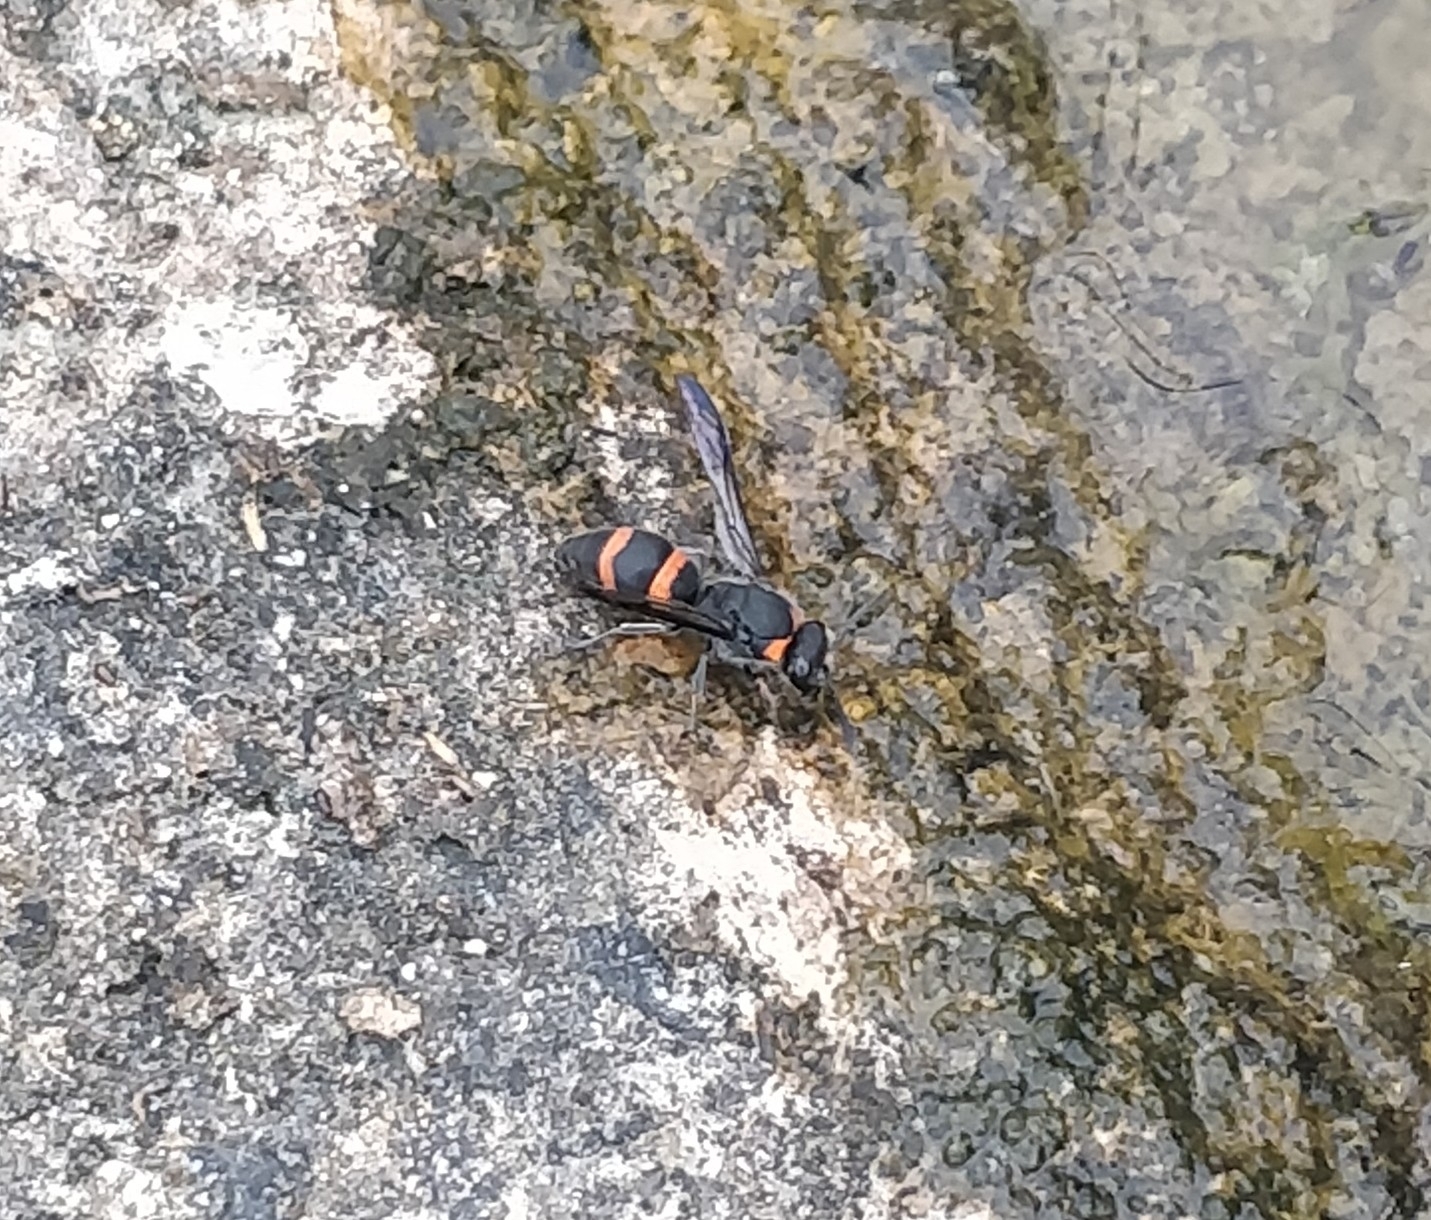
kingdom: Animalia
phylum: Arthropoda
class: Insecta
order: Hymenoptera
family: Vespidae
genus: Ancistrocerus
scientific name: Ancistrocerus haematodes
